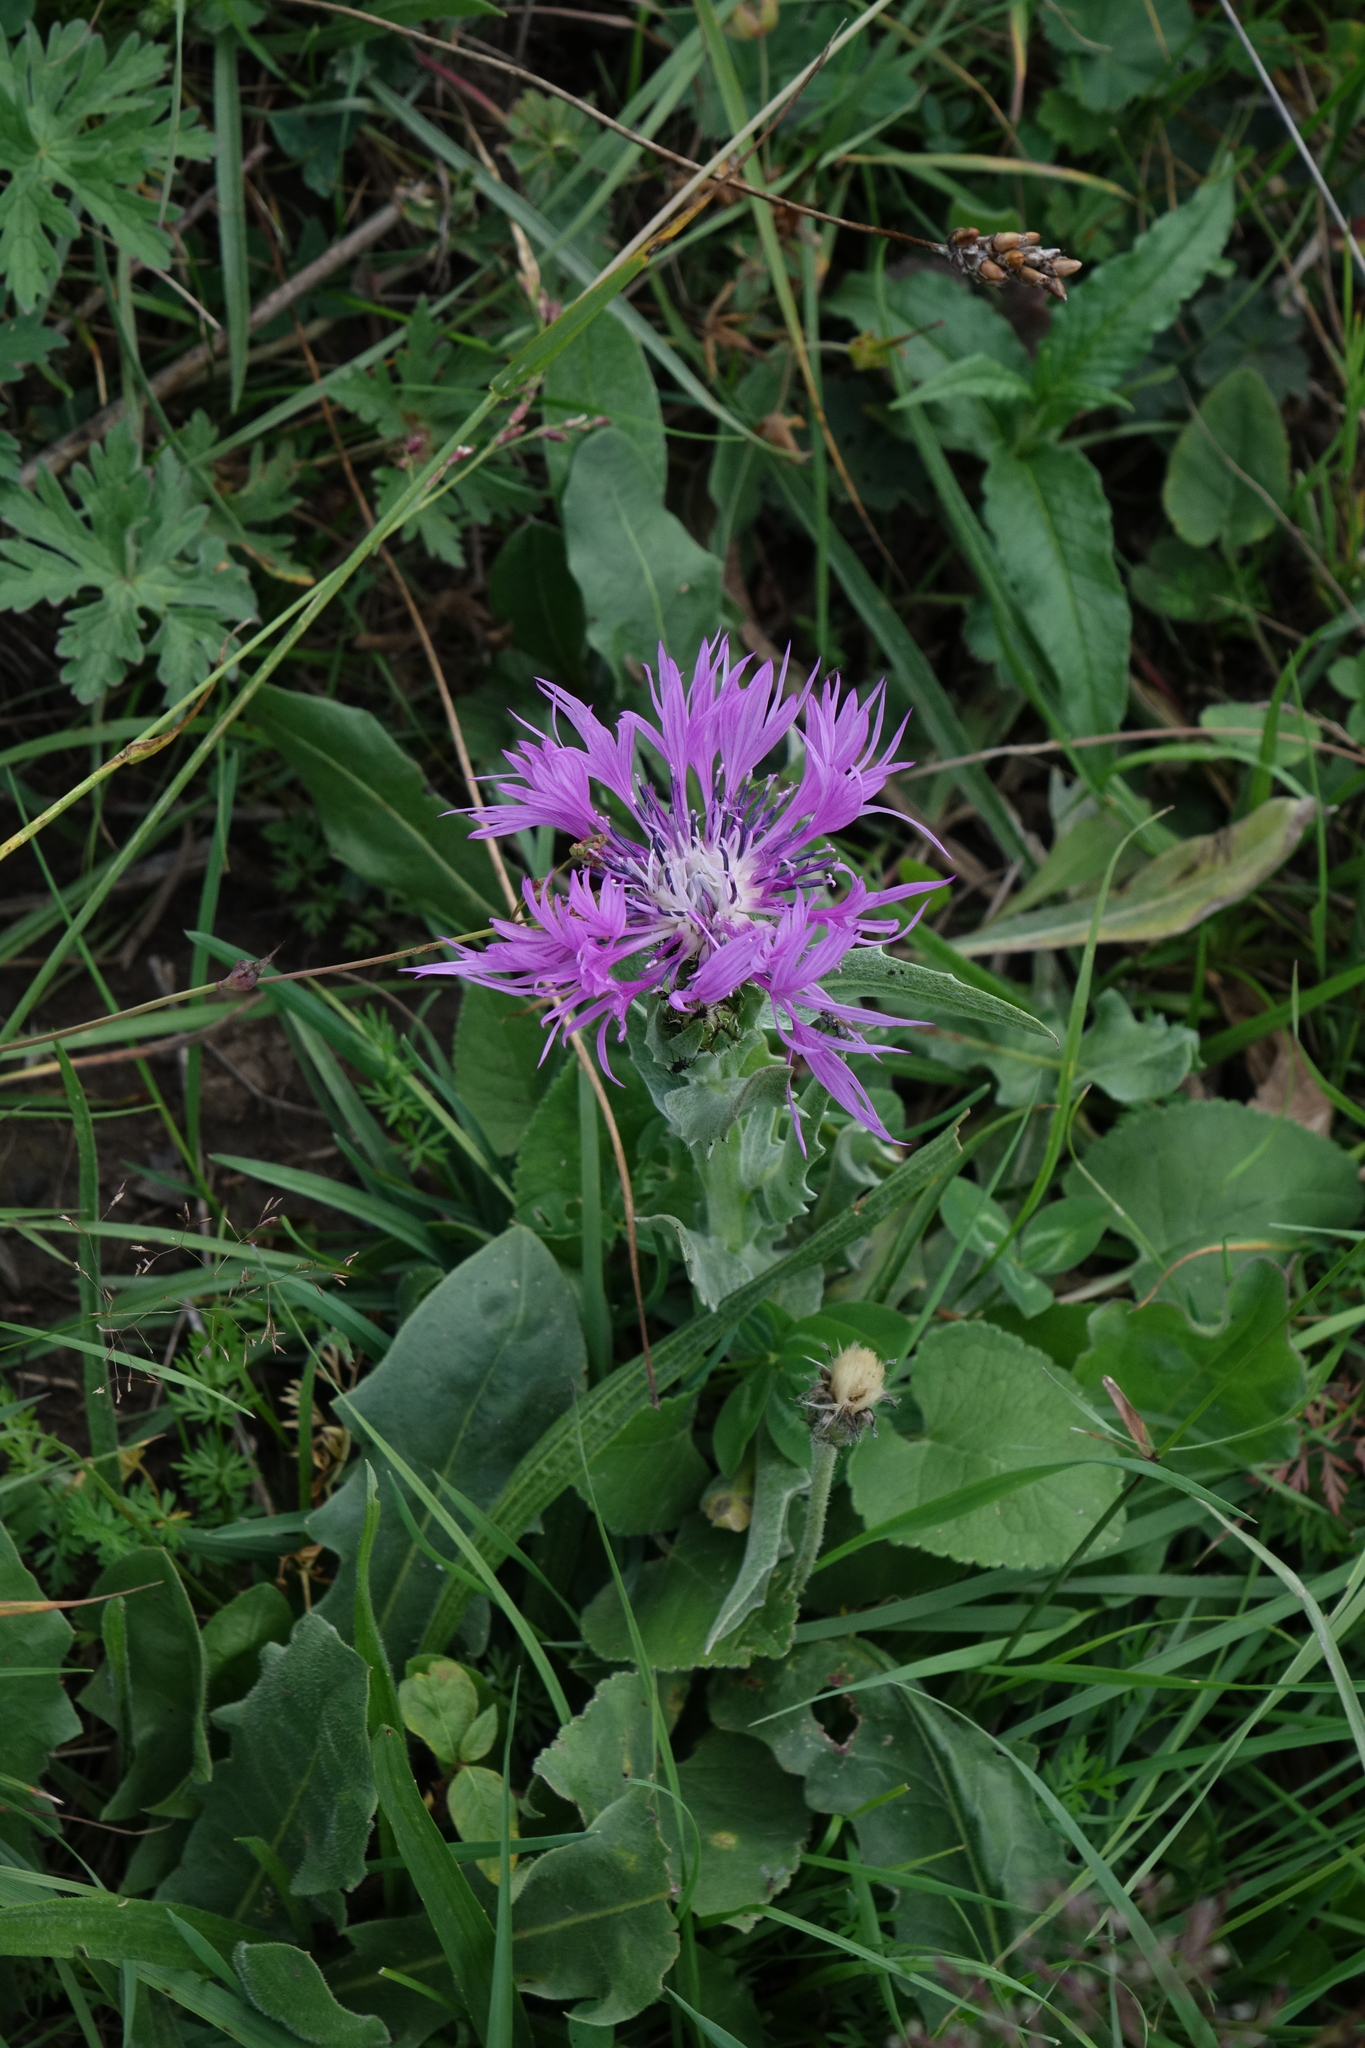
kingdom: Plantae
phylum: Tracheophyta
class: Magnoliopsida
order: Asterales
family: Asteraceae
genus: Centaurea
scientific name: Centaurea cheiranthifolia
